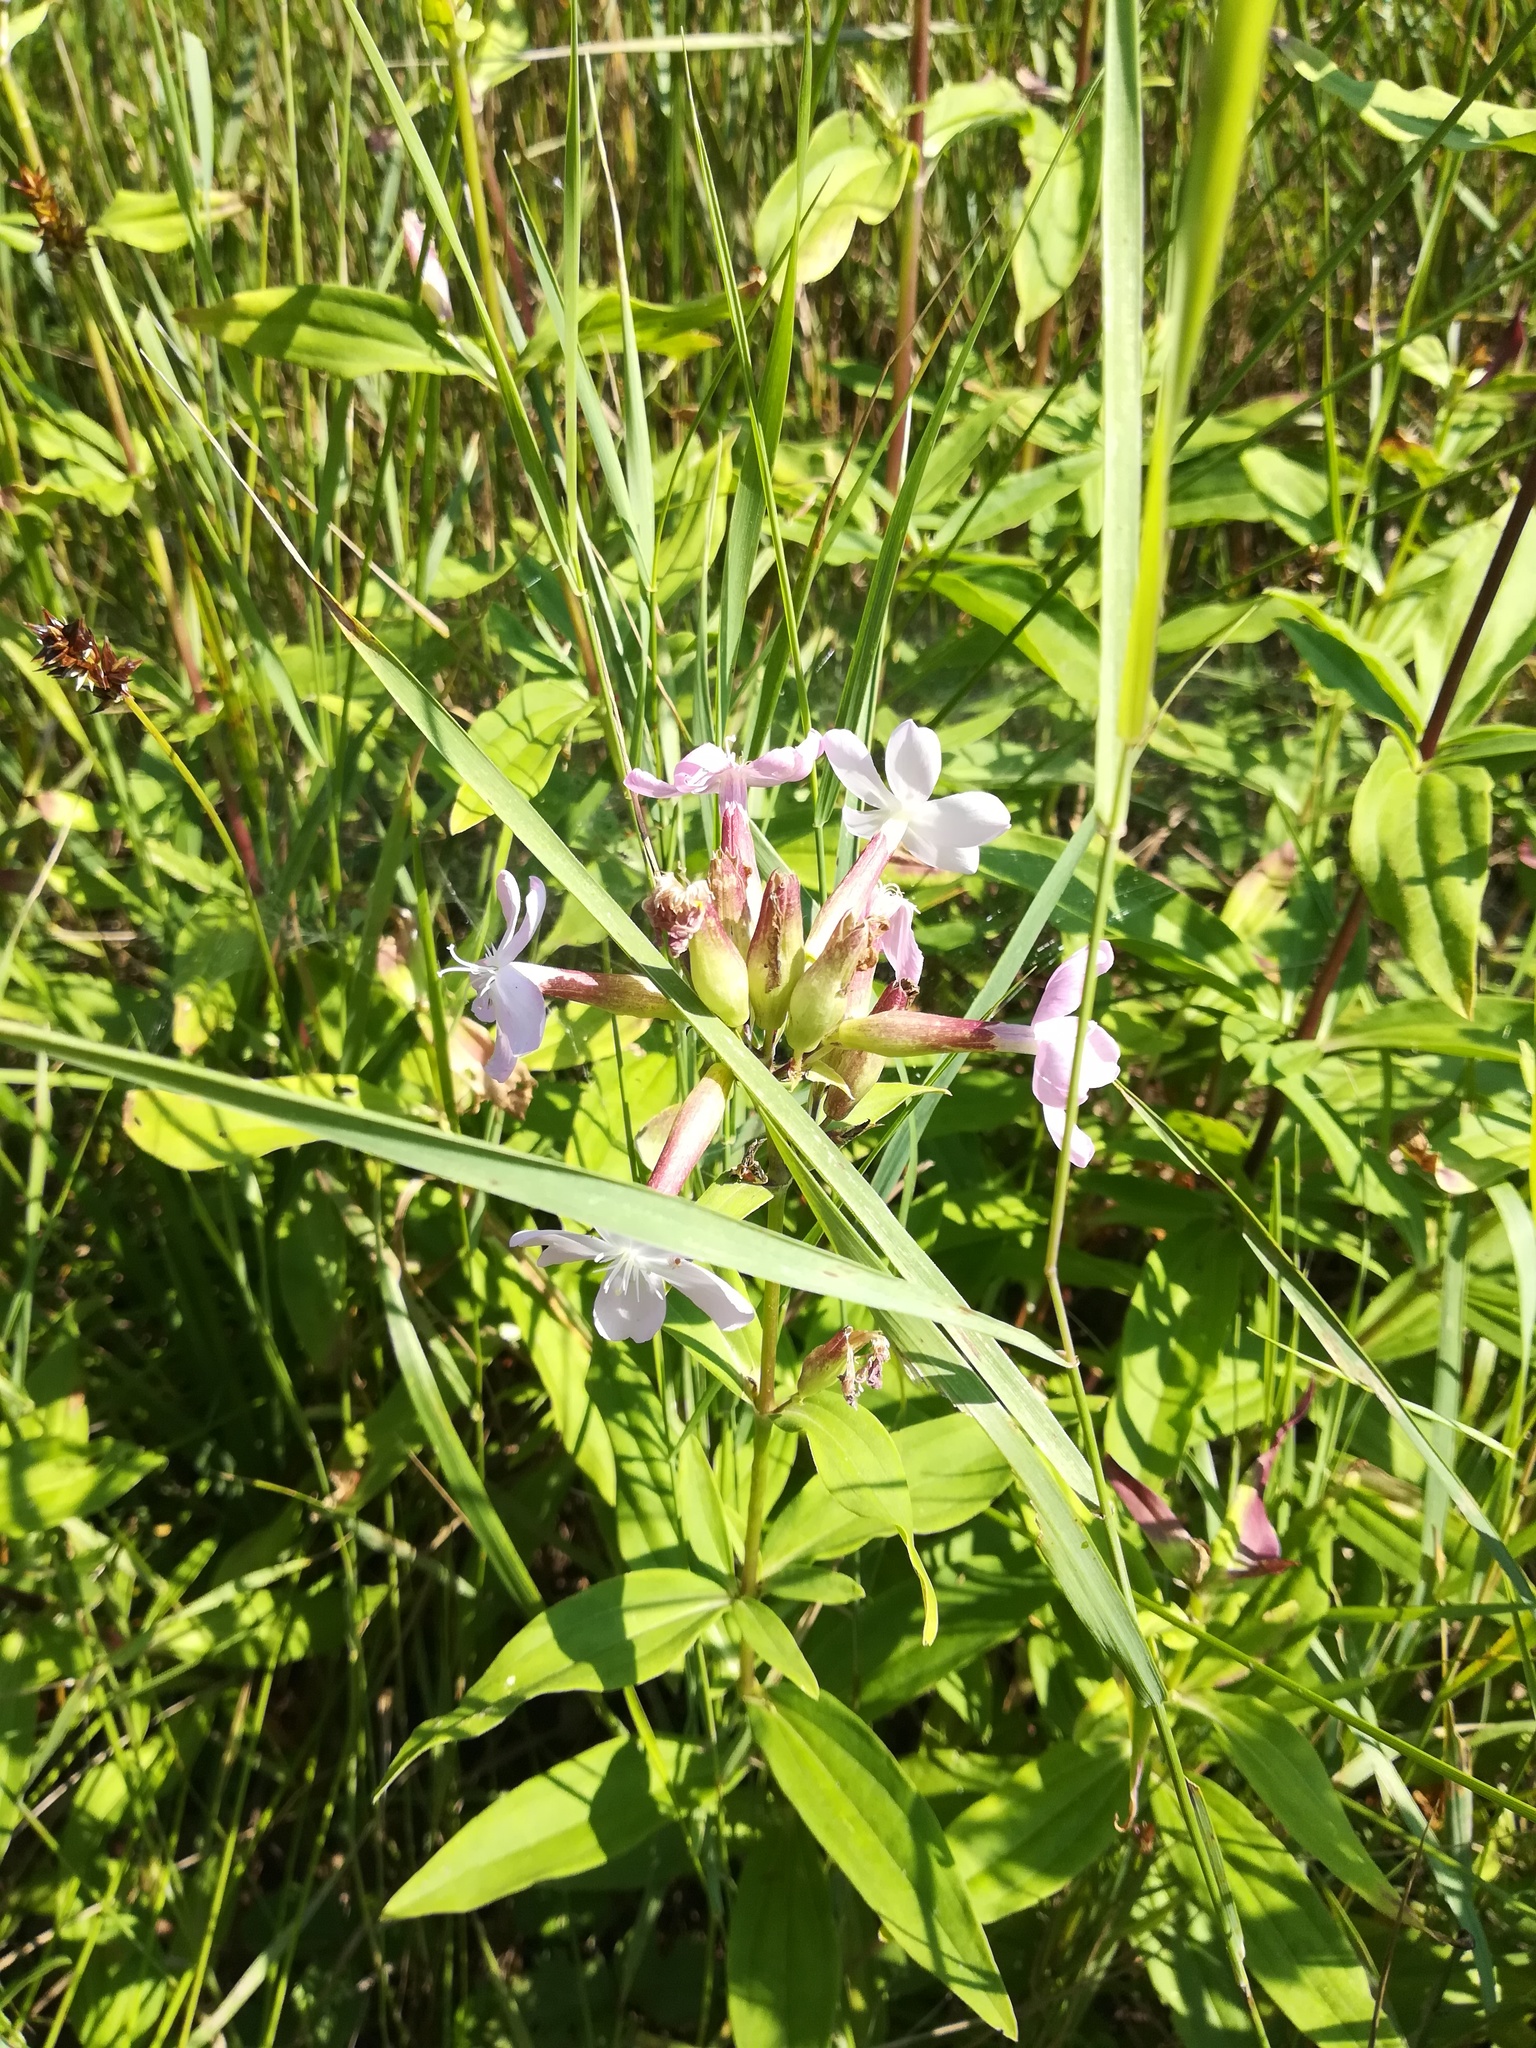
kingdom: Plantae
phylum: Tracheophyta
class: Magnoliopsida
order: Caryophyllales
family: Caryophyllaceae
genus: Saponaria
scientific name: Saponaria officinalis
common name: Soapwort
